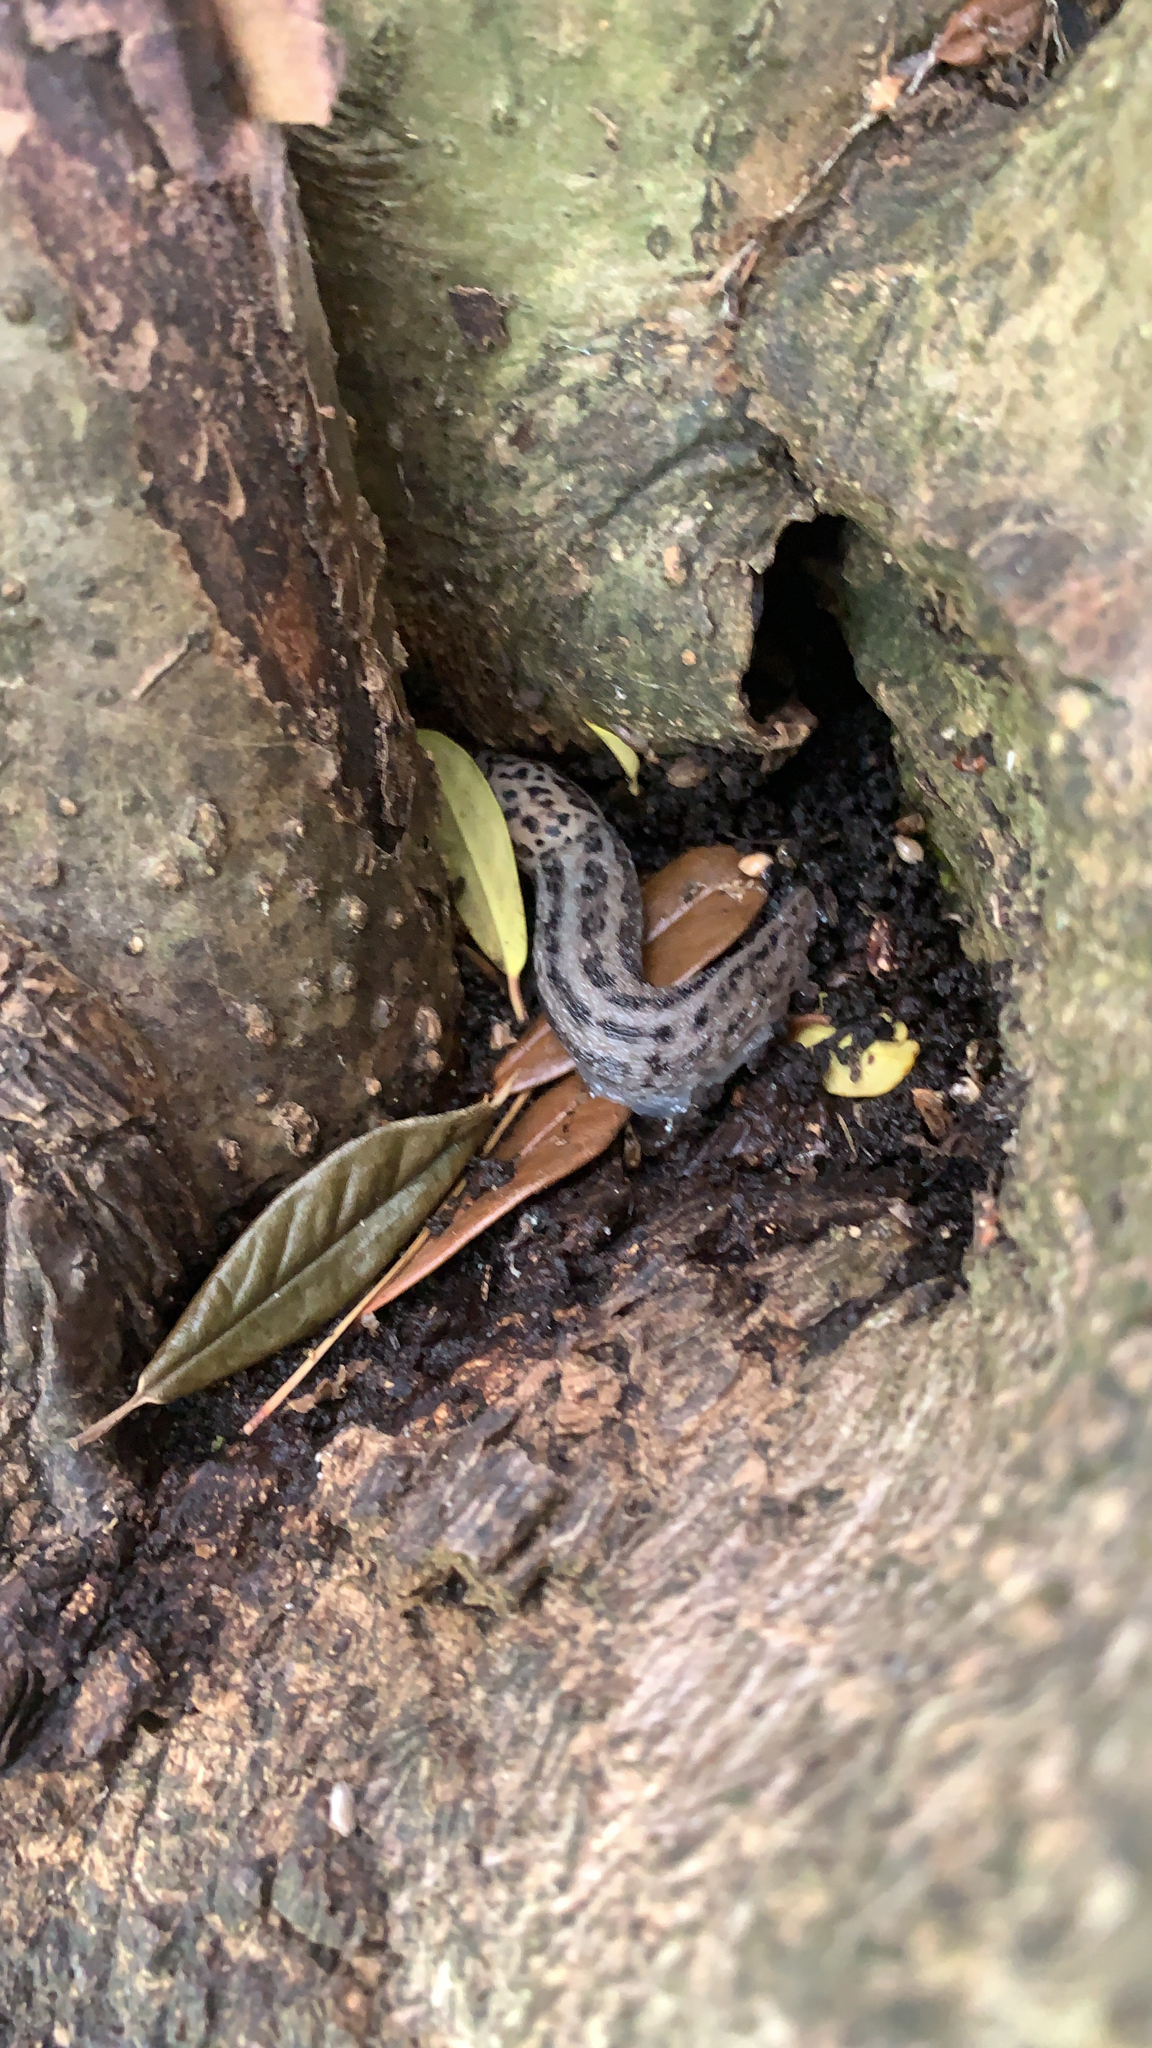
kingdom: Animalia
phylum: Mollusca
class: Gastropoda
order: Stylommatophora
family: Limacidae
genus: Limax
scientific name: Limax maximus
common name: Great grey slug
